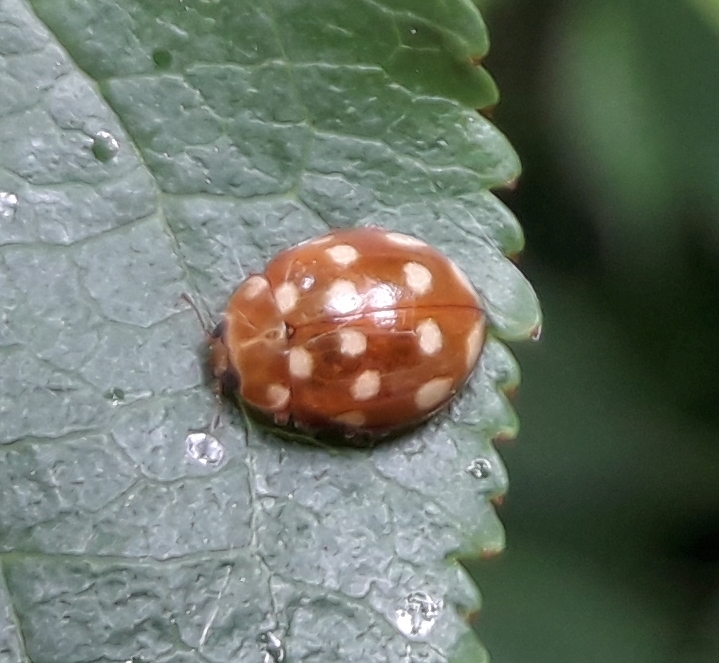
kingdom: Animalia
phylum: Arthropoda
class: Insecta
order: Coleoptera
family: Coccinellidae
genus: Calvia
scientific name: Calvia quatuordecimguttata
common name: Cream-spot ladybird
